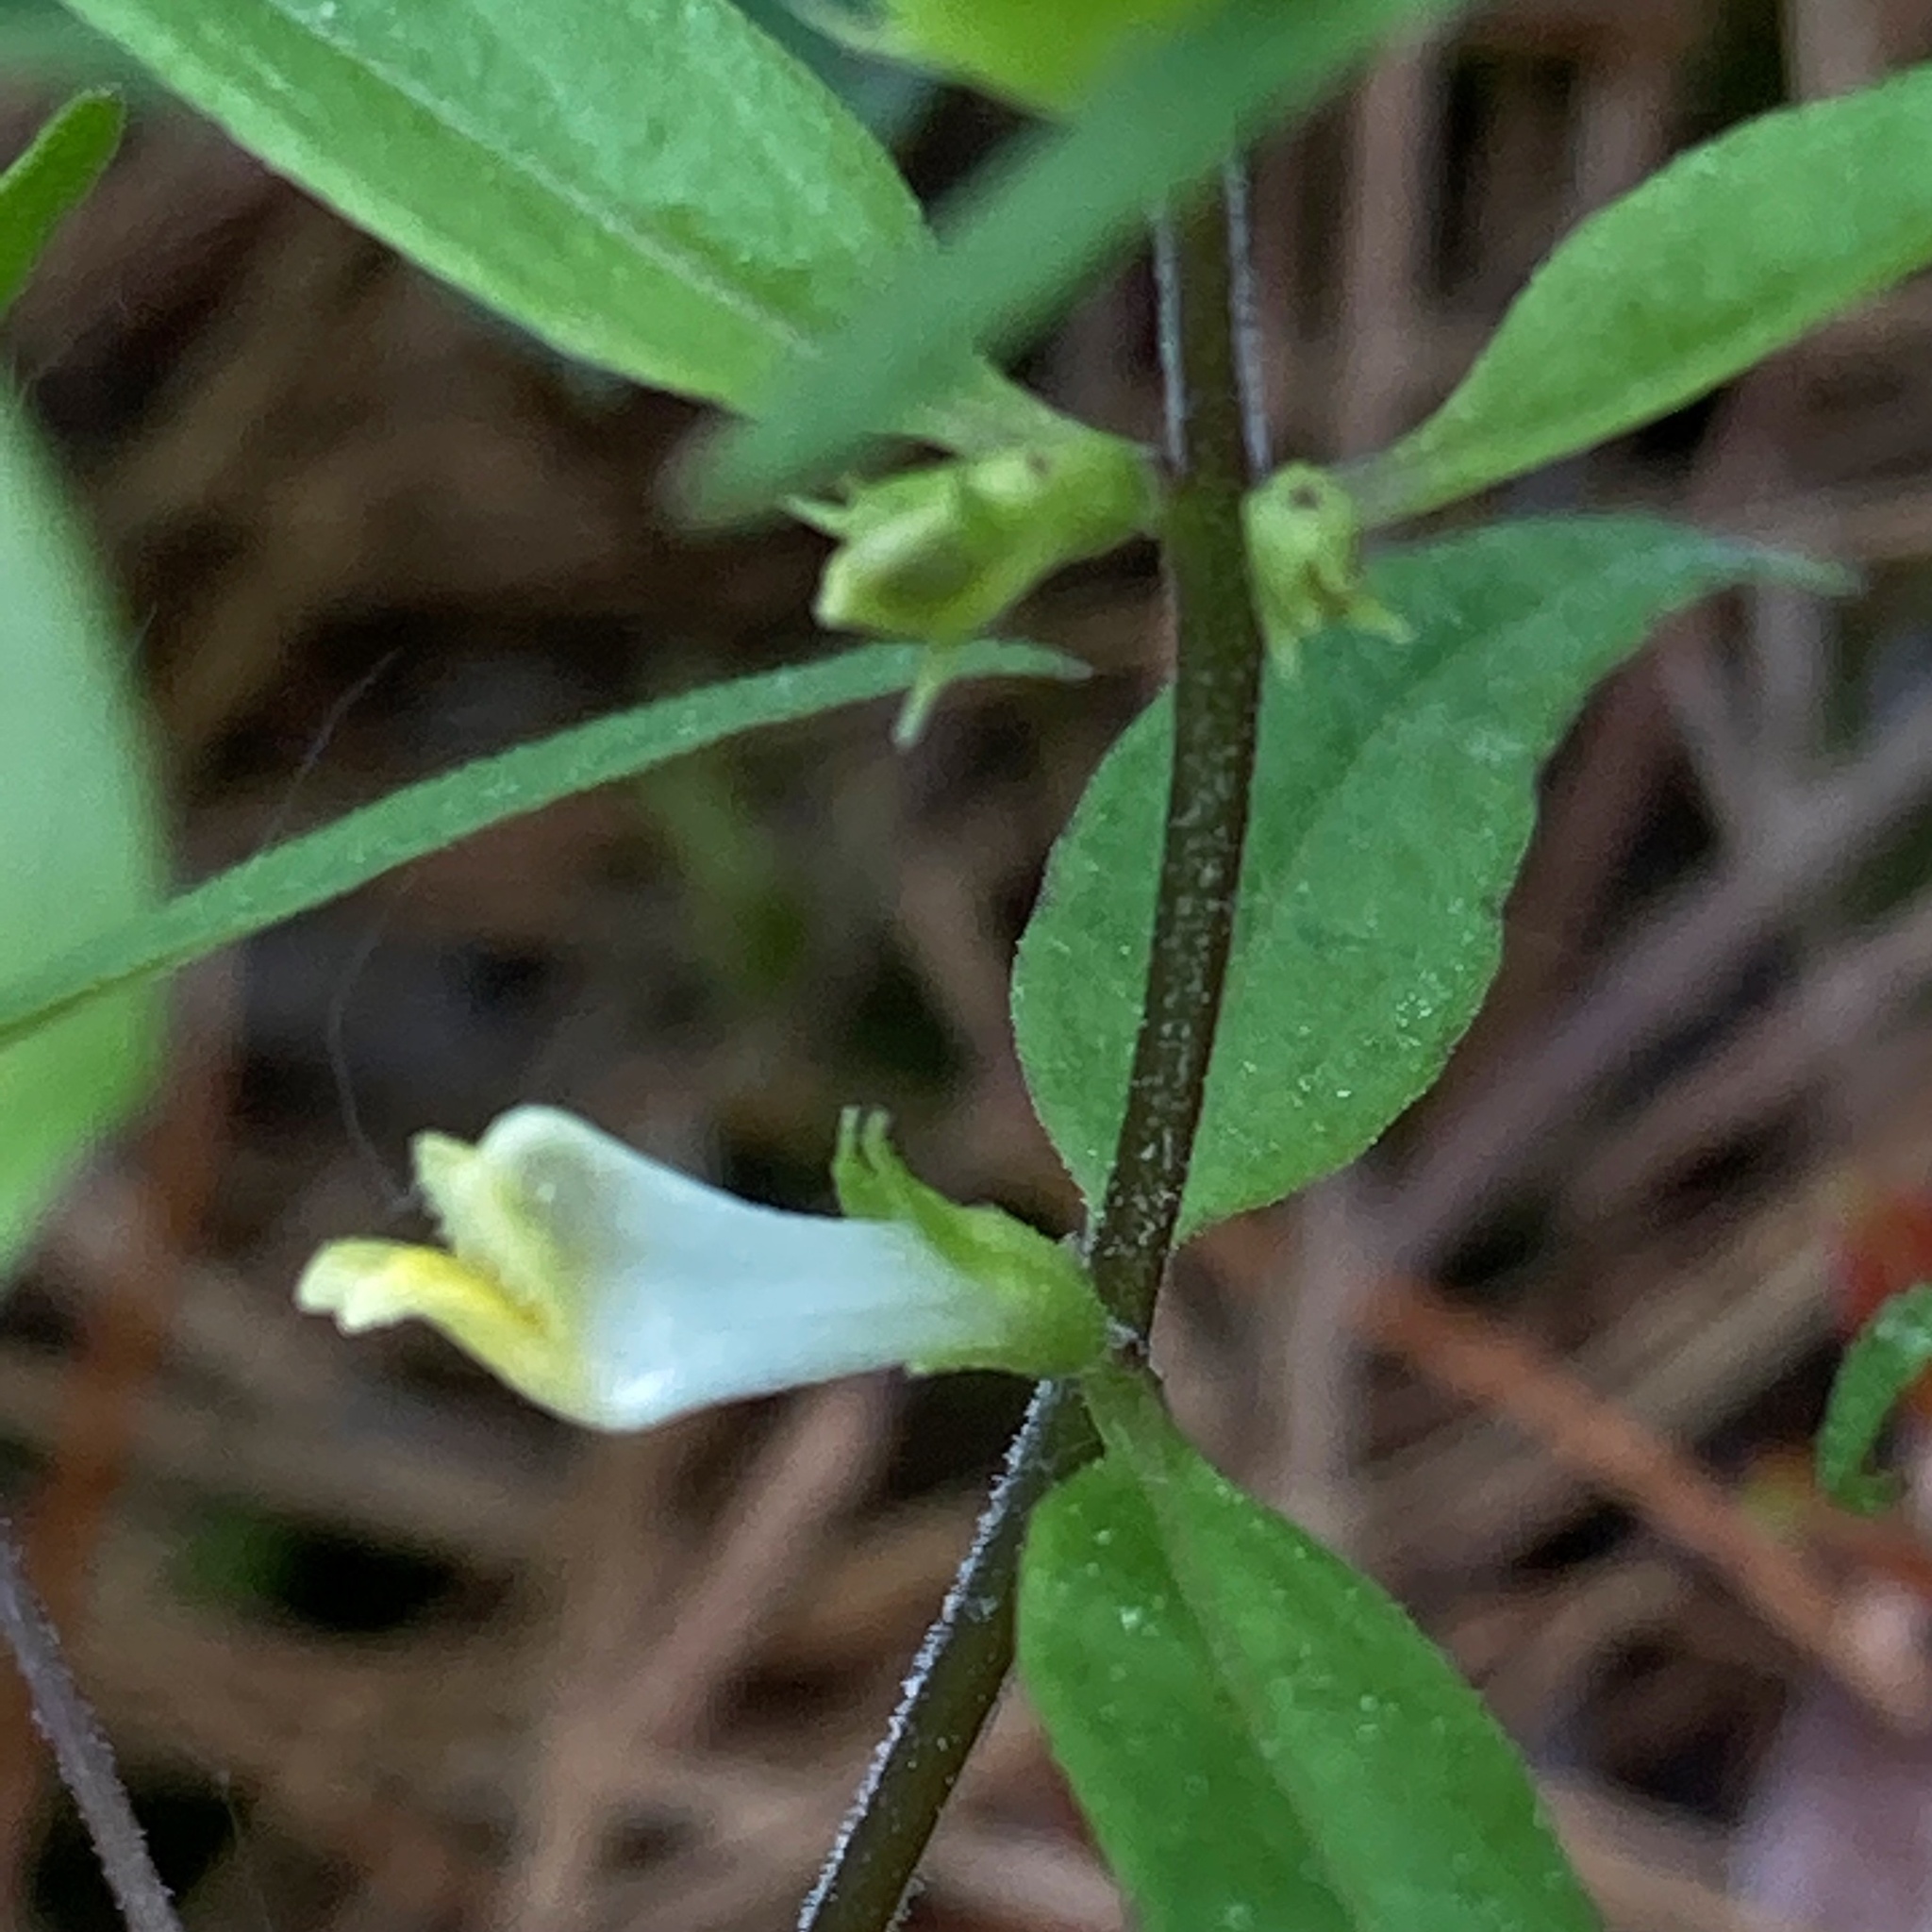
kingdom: Plantae
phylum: Tracheophyta
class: Magnoliopsida
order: Lamiales
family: Orobanchaceae
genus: Melampyrum
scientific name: Melampyrum lineare
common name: American cow-wheat
